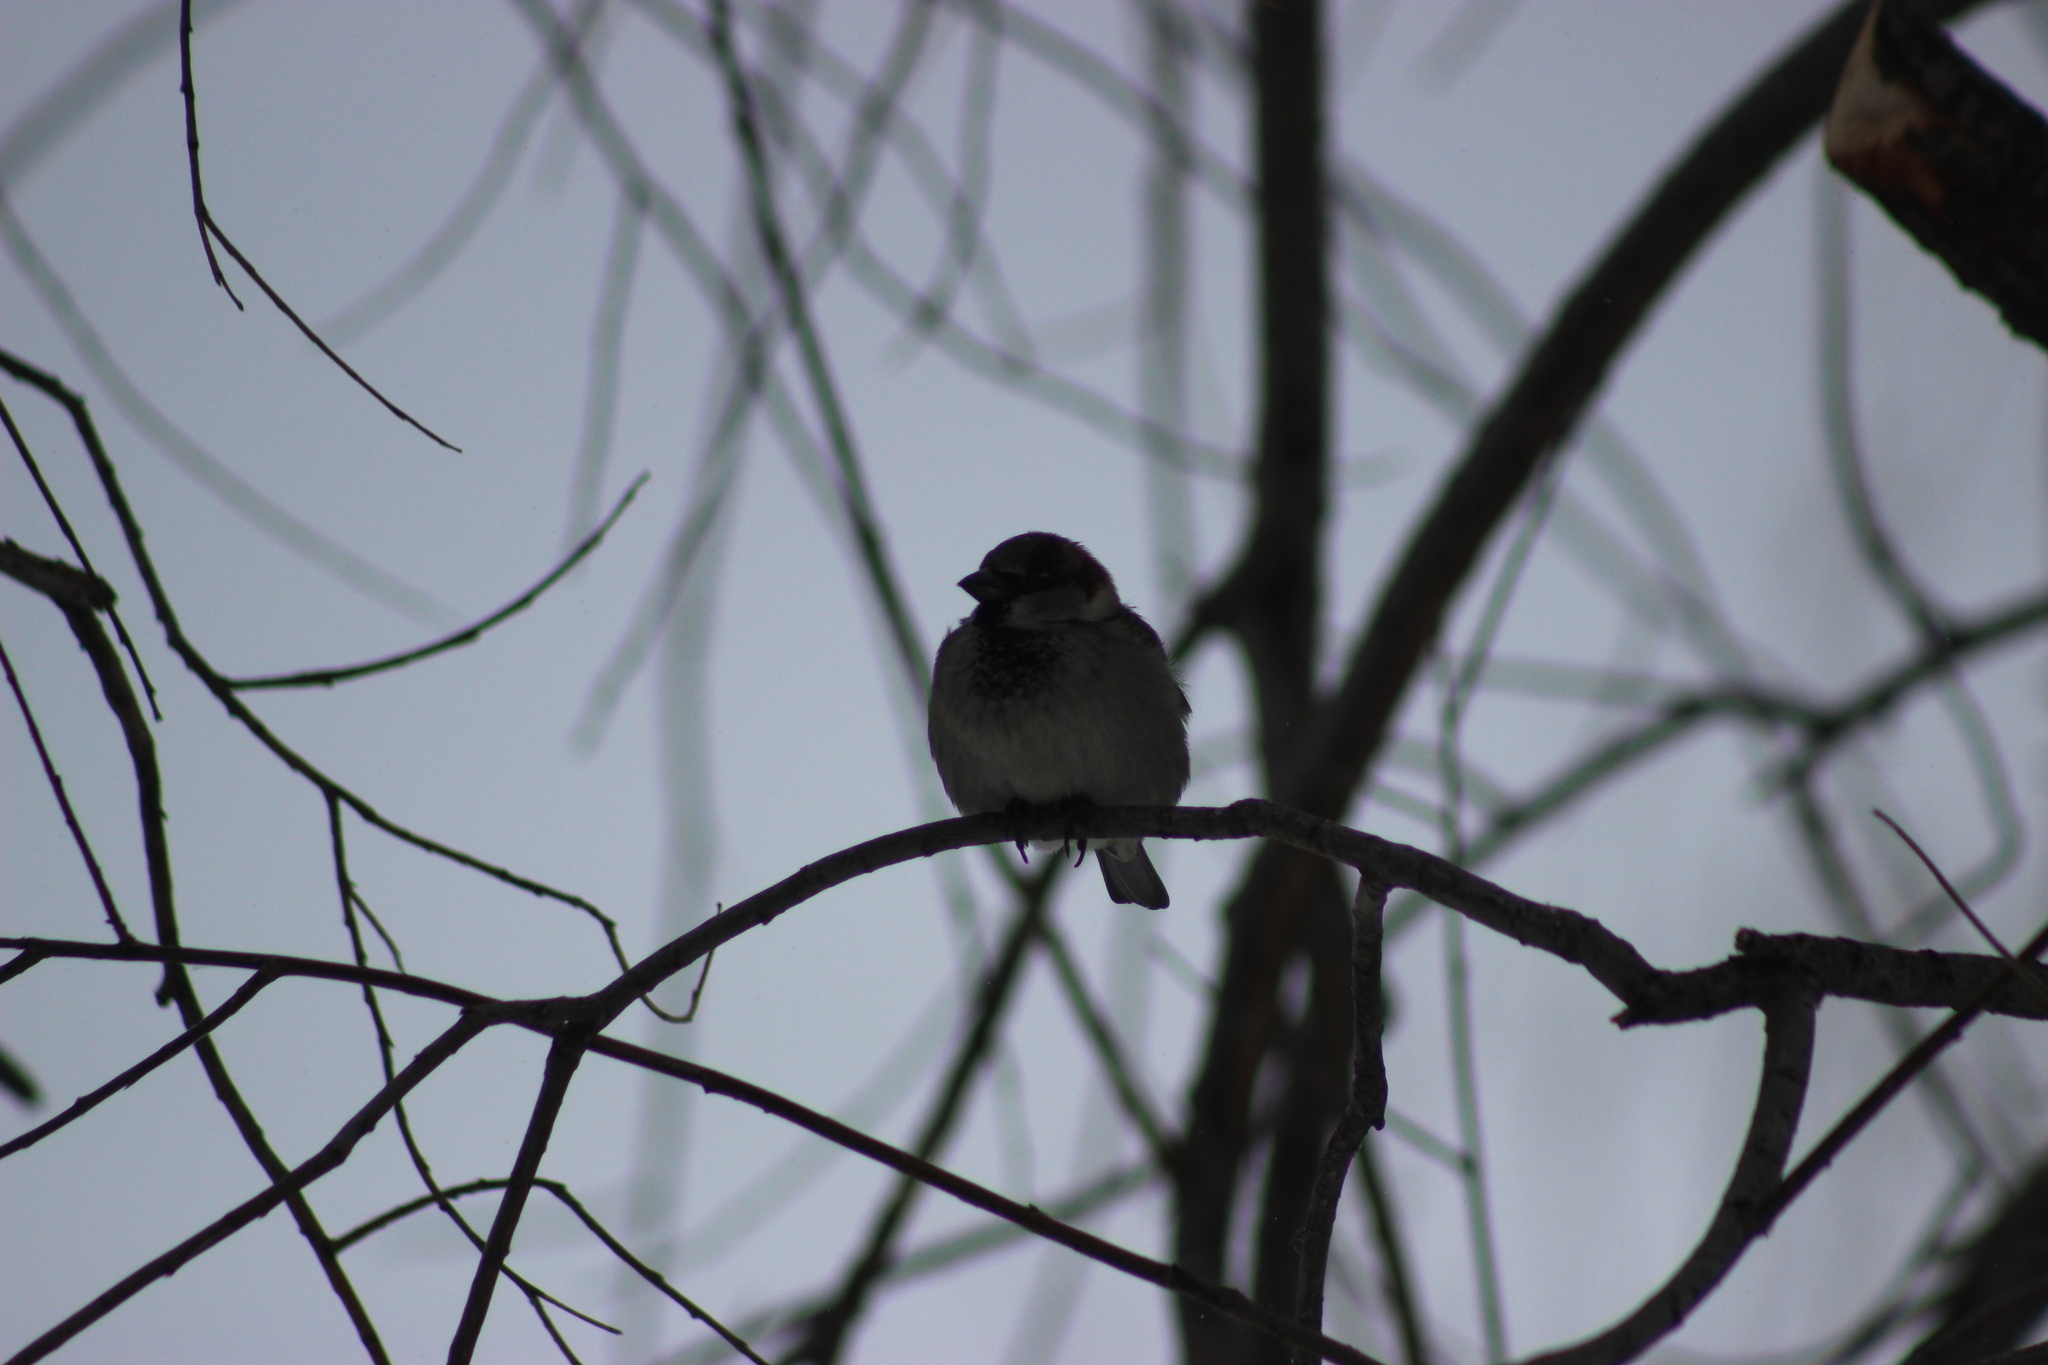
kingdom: Animalia
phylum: Chordata
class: Aves
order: Passeriformes
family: Passeridae
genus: Passer
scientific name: Passer domesticus
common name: House sparrow
